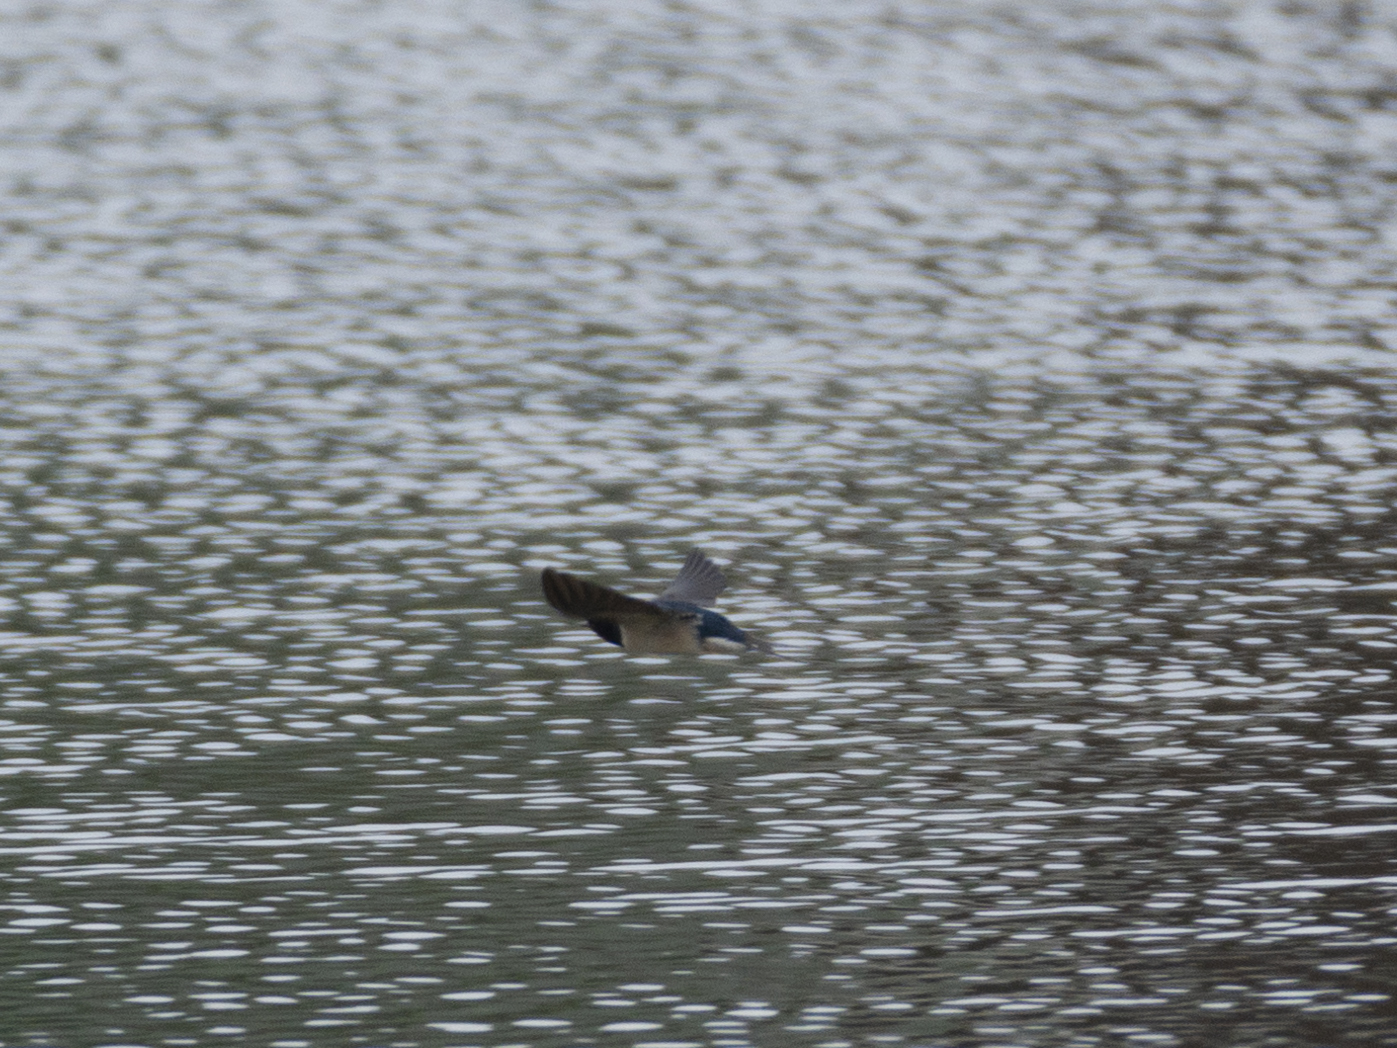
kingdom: Animalia
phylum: Chordata
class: Aves
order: Passeriformes
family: Hirundinidae
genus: Hirundo
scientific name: Hirundo rustica
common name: Barn swallow
